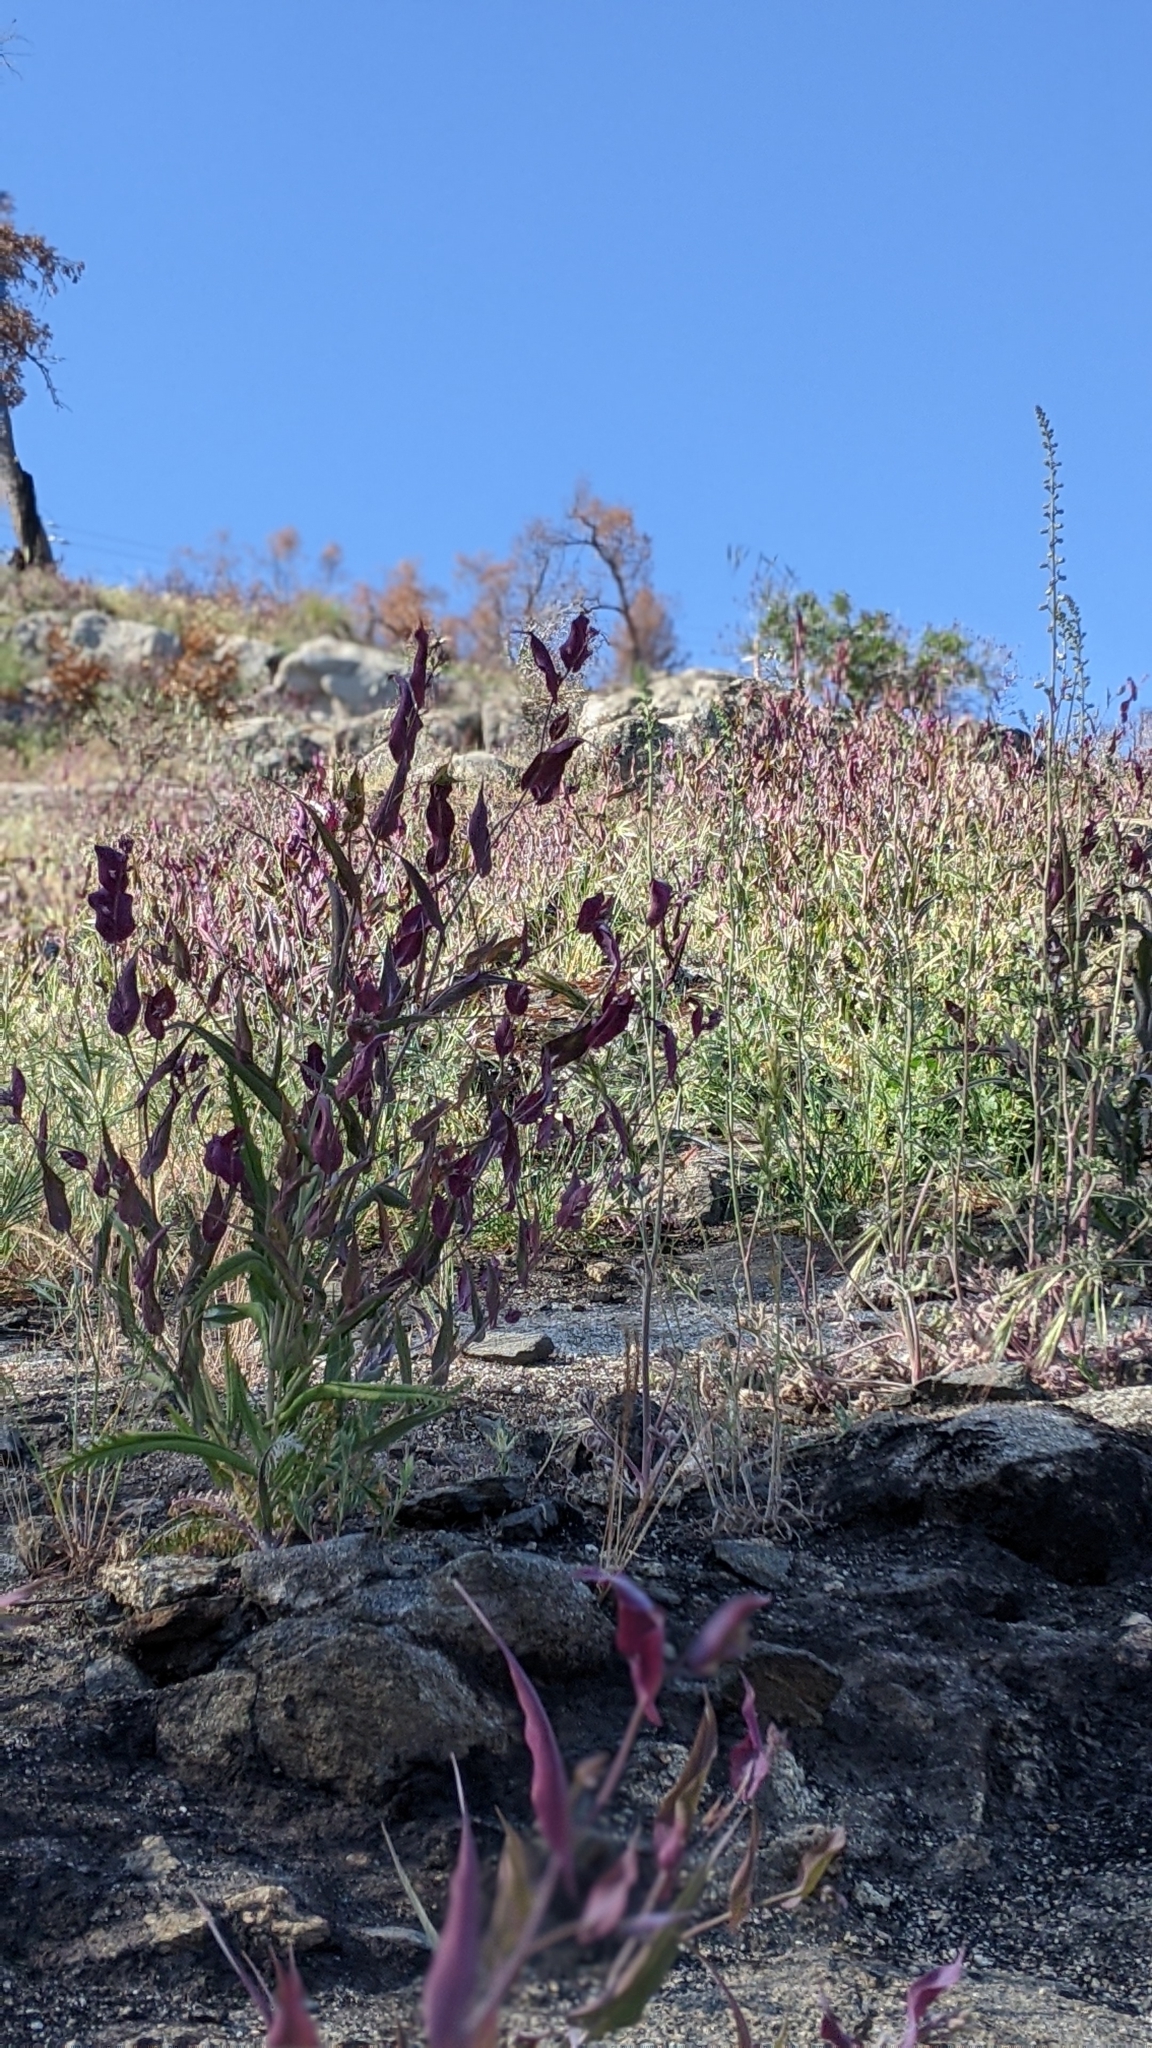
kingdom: Plantae
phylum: Tracheophyta
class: Magnoliopsida
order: Brassicales
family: Brassicaceae
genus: Streptanthus
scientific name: Streptanthus farnsworthianus
